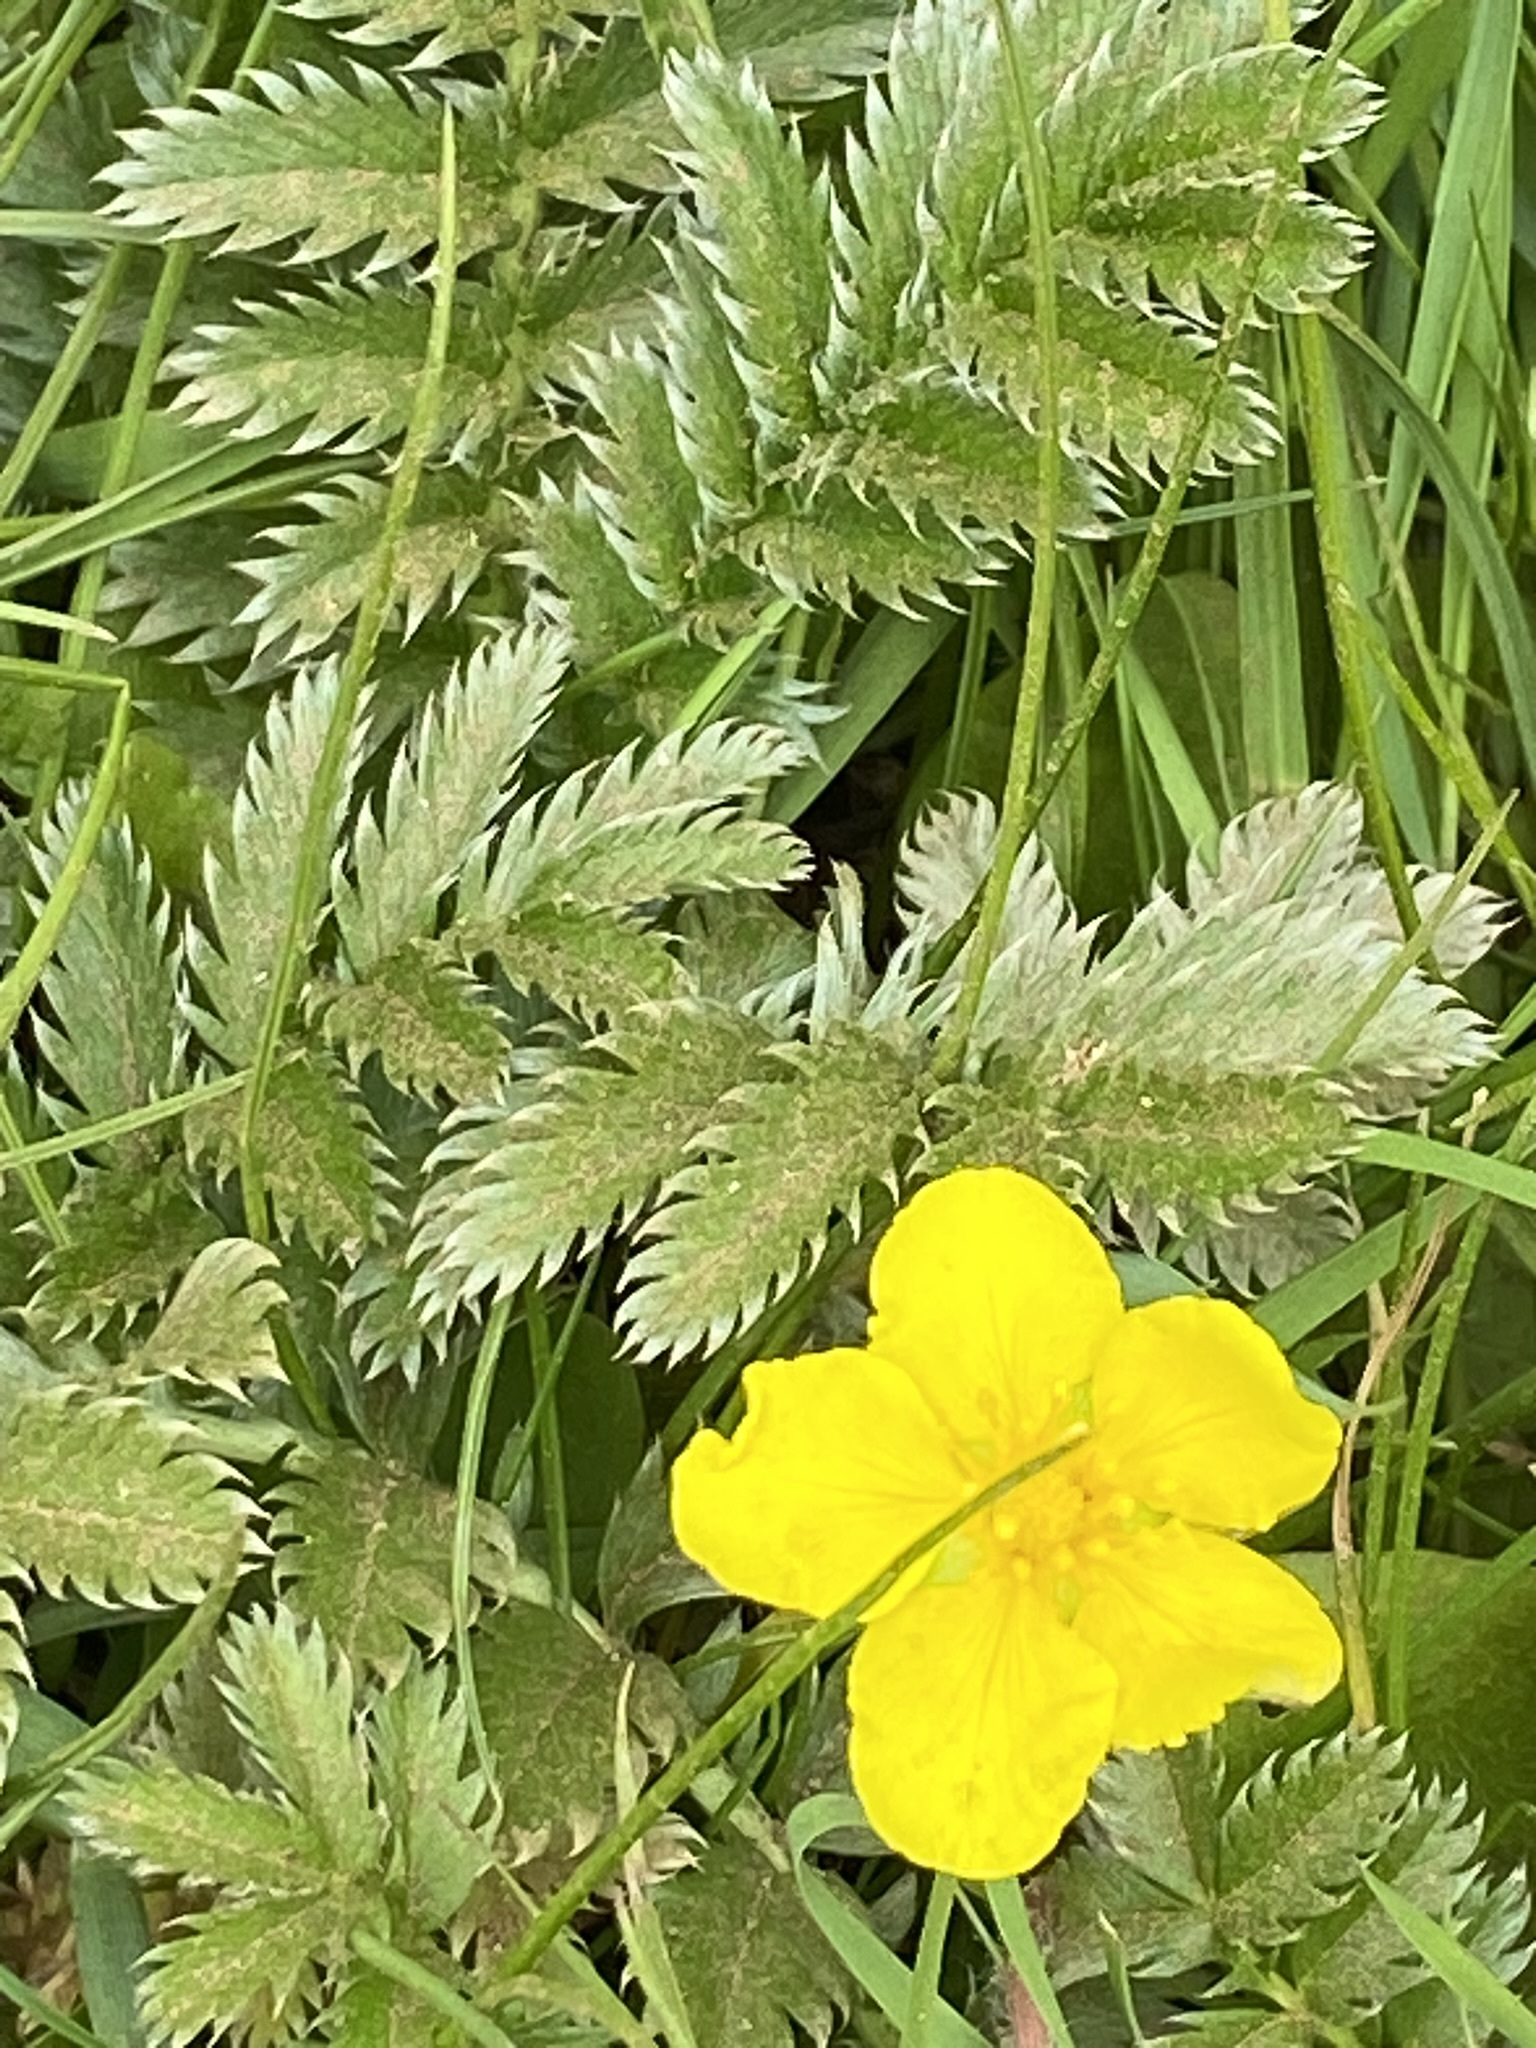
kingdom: Plantae
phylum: Tracheophyta
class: Magnoliopsida
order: Rosales
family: Rosaceae
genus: Argentina
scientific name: Argentina anserina
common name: Common silverweed
